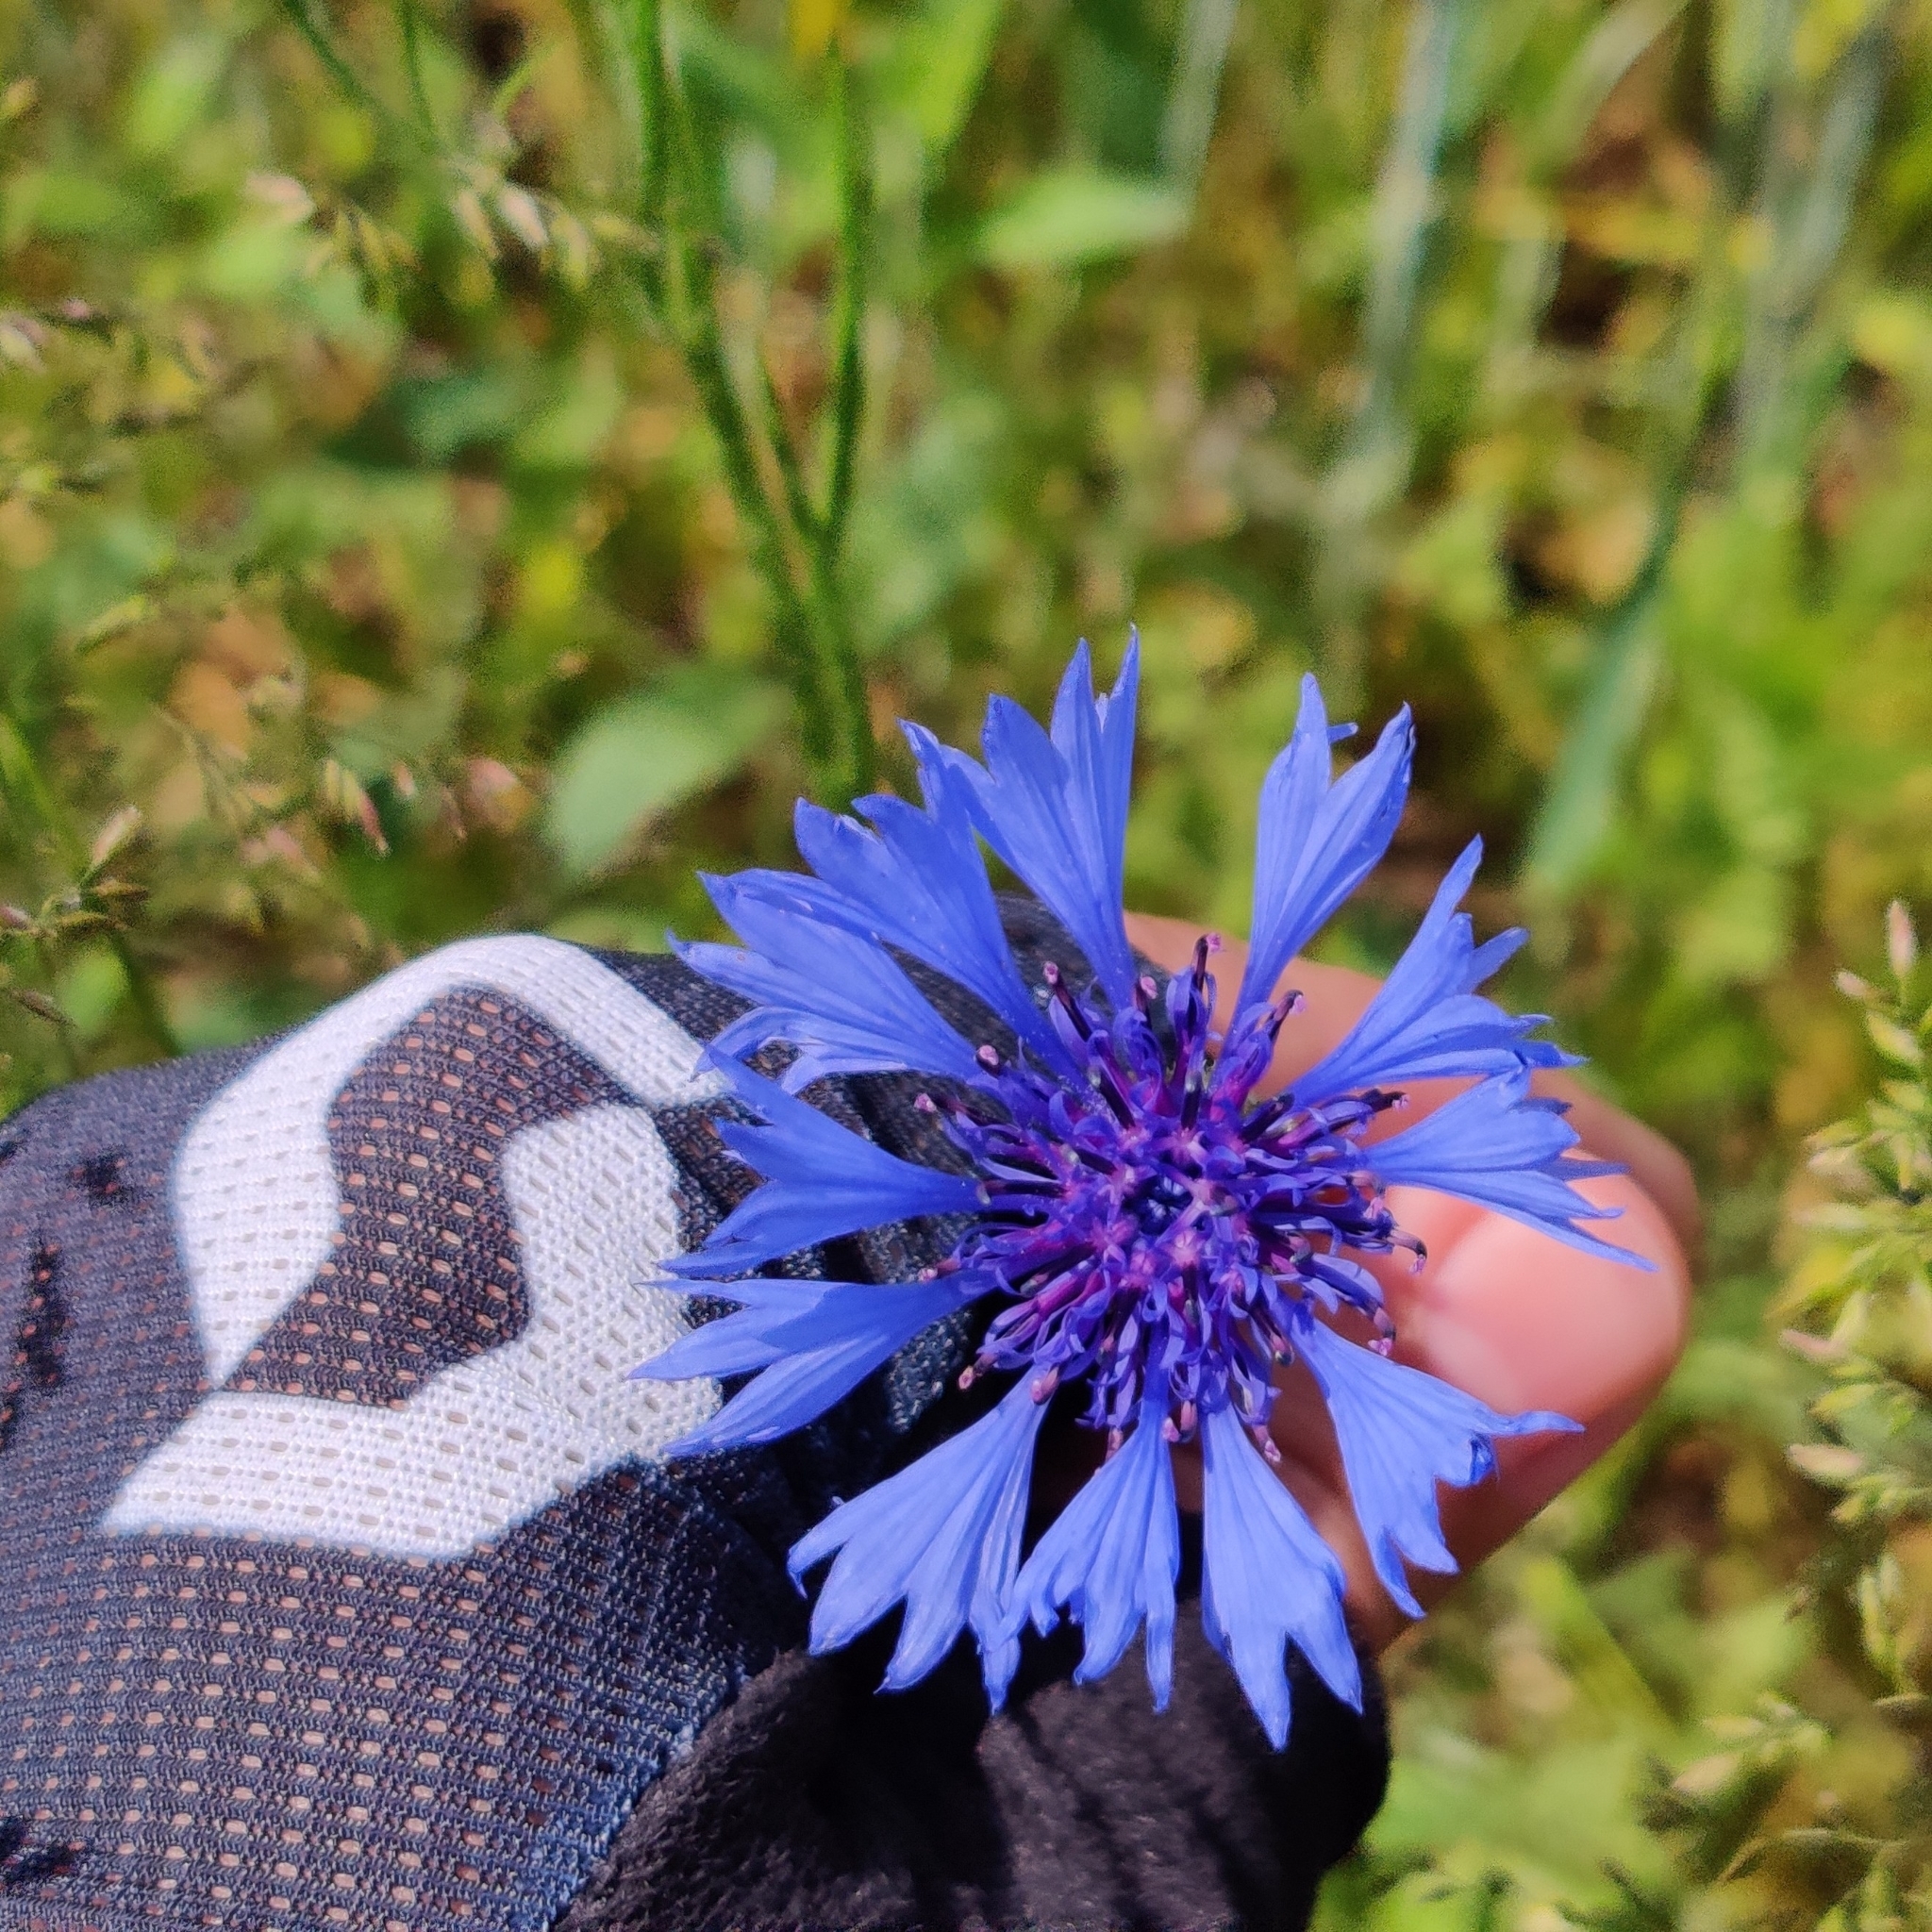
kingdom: Plantae
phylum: Tracheophyta
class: Magnoliopsida
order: Asterales
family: Asteraceae
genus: Centaurea
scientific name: Centaurea cyanus
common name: Cornflower
